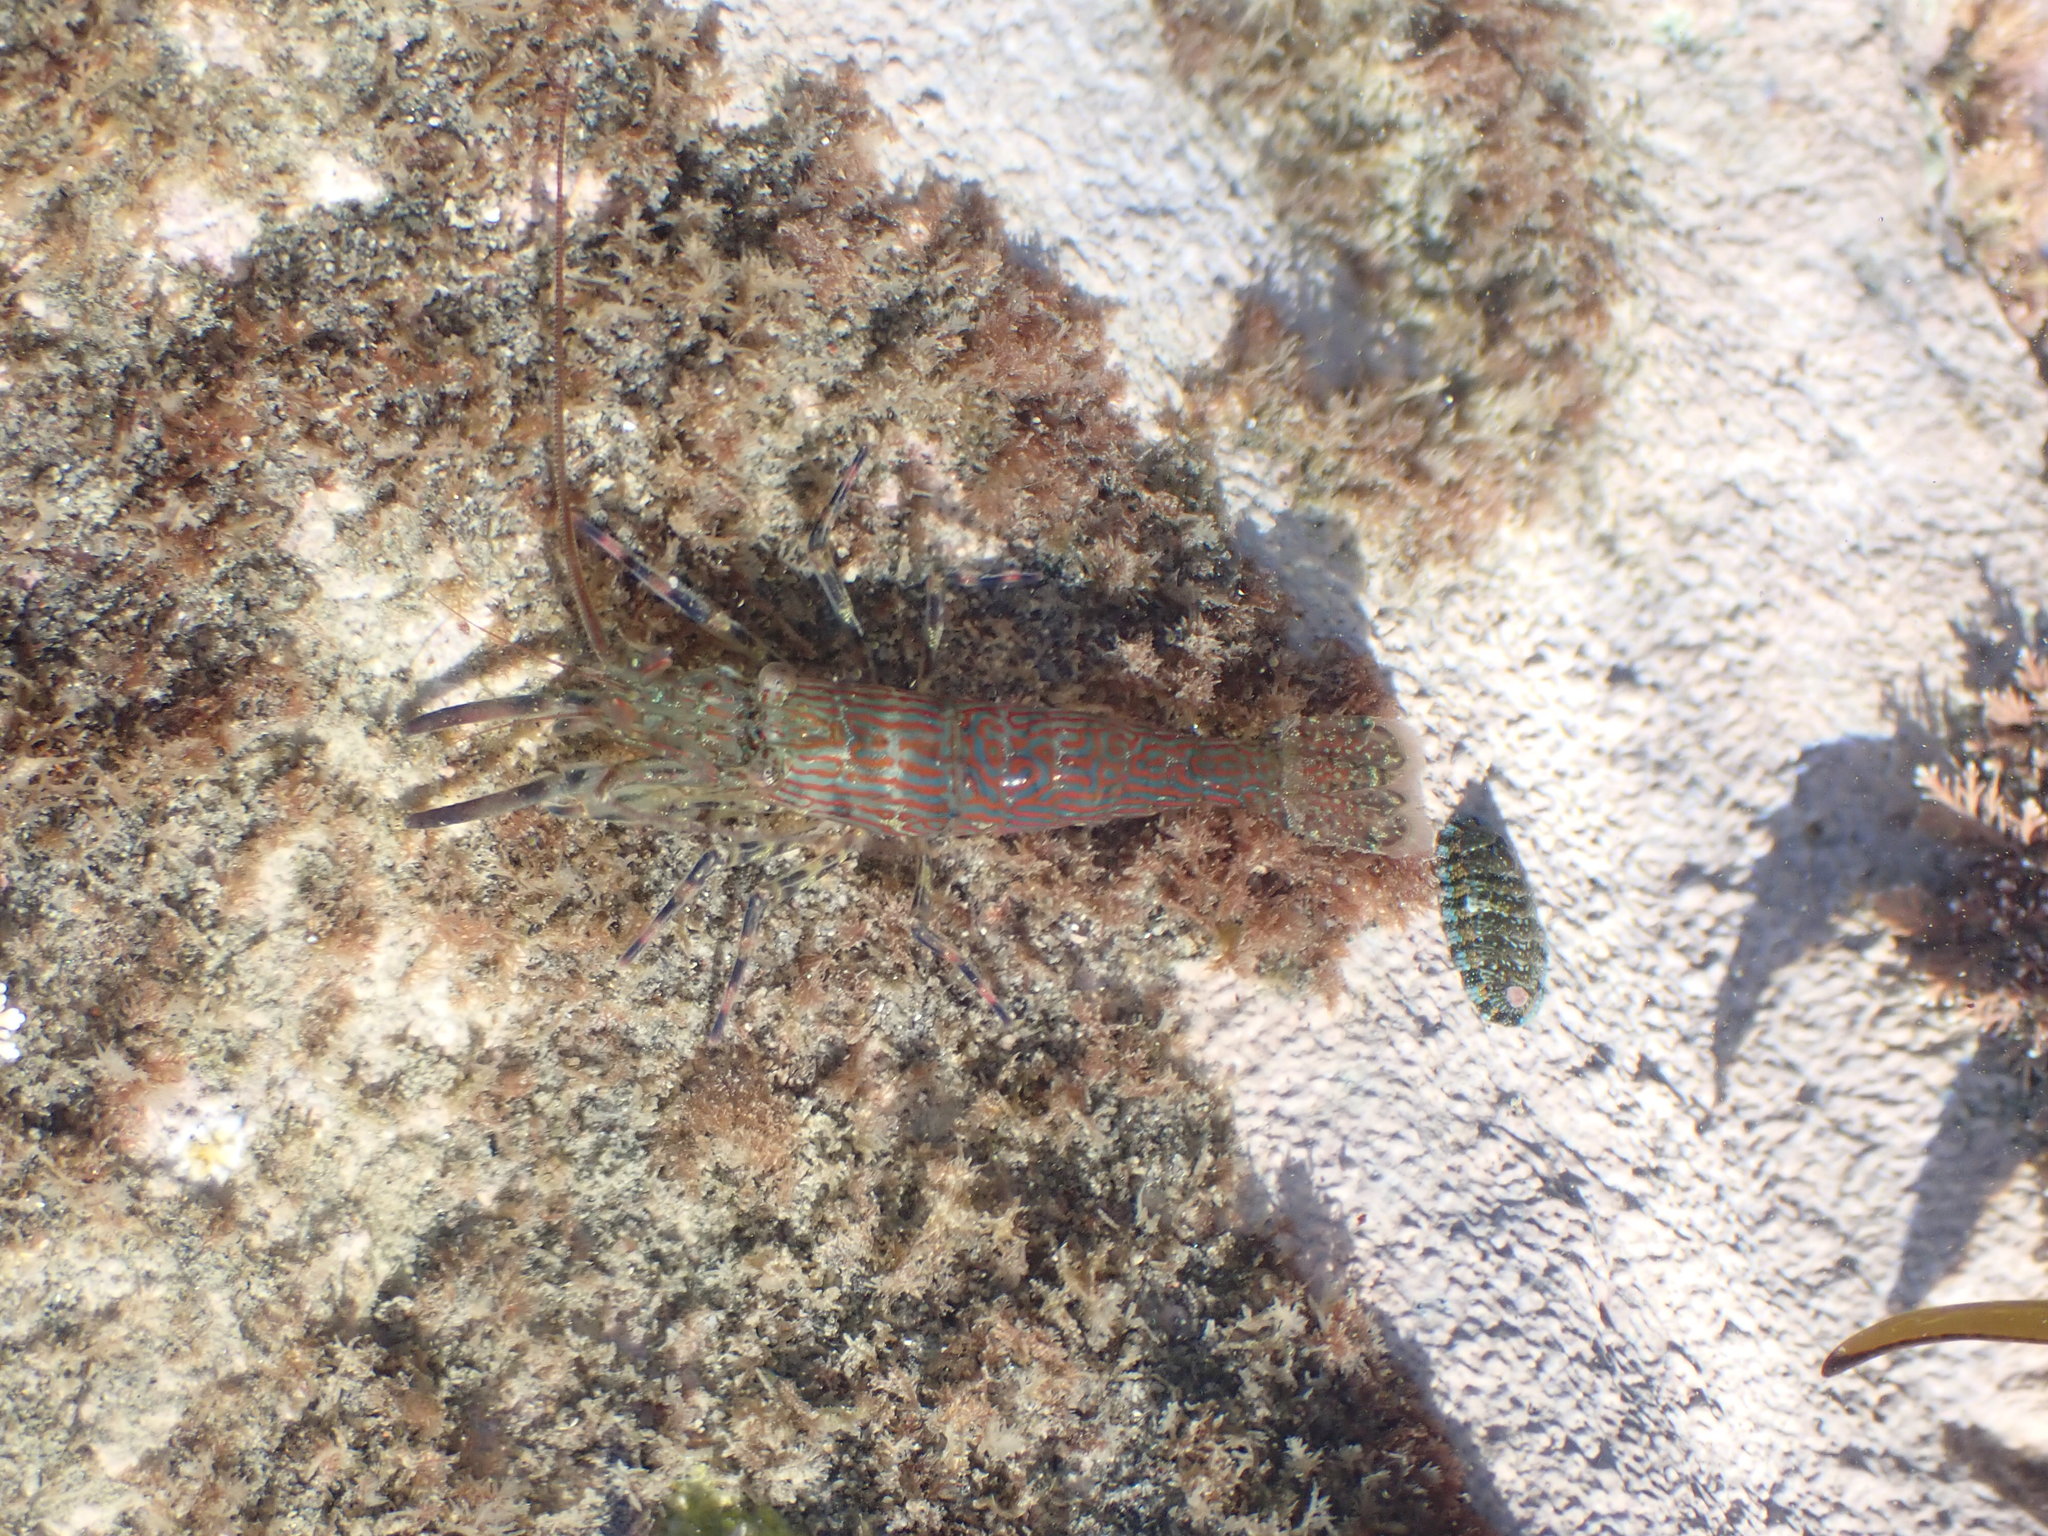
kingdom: Animalia
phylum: Arthropoda
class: Malacostraca
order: Decapoda
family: Hippolytidae
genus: Alope
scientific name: Alope spinifrons
